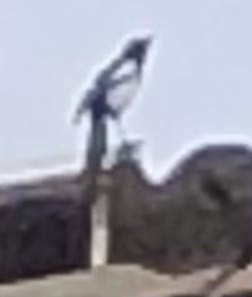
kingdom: Animalia
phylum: Chordata
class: Aves
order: Passeriformes
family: Corvidae
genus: Pica
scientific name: Pica pica
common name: Eurasian magpie
